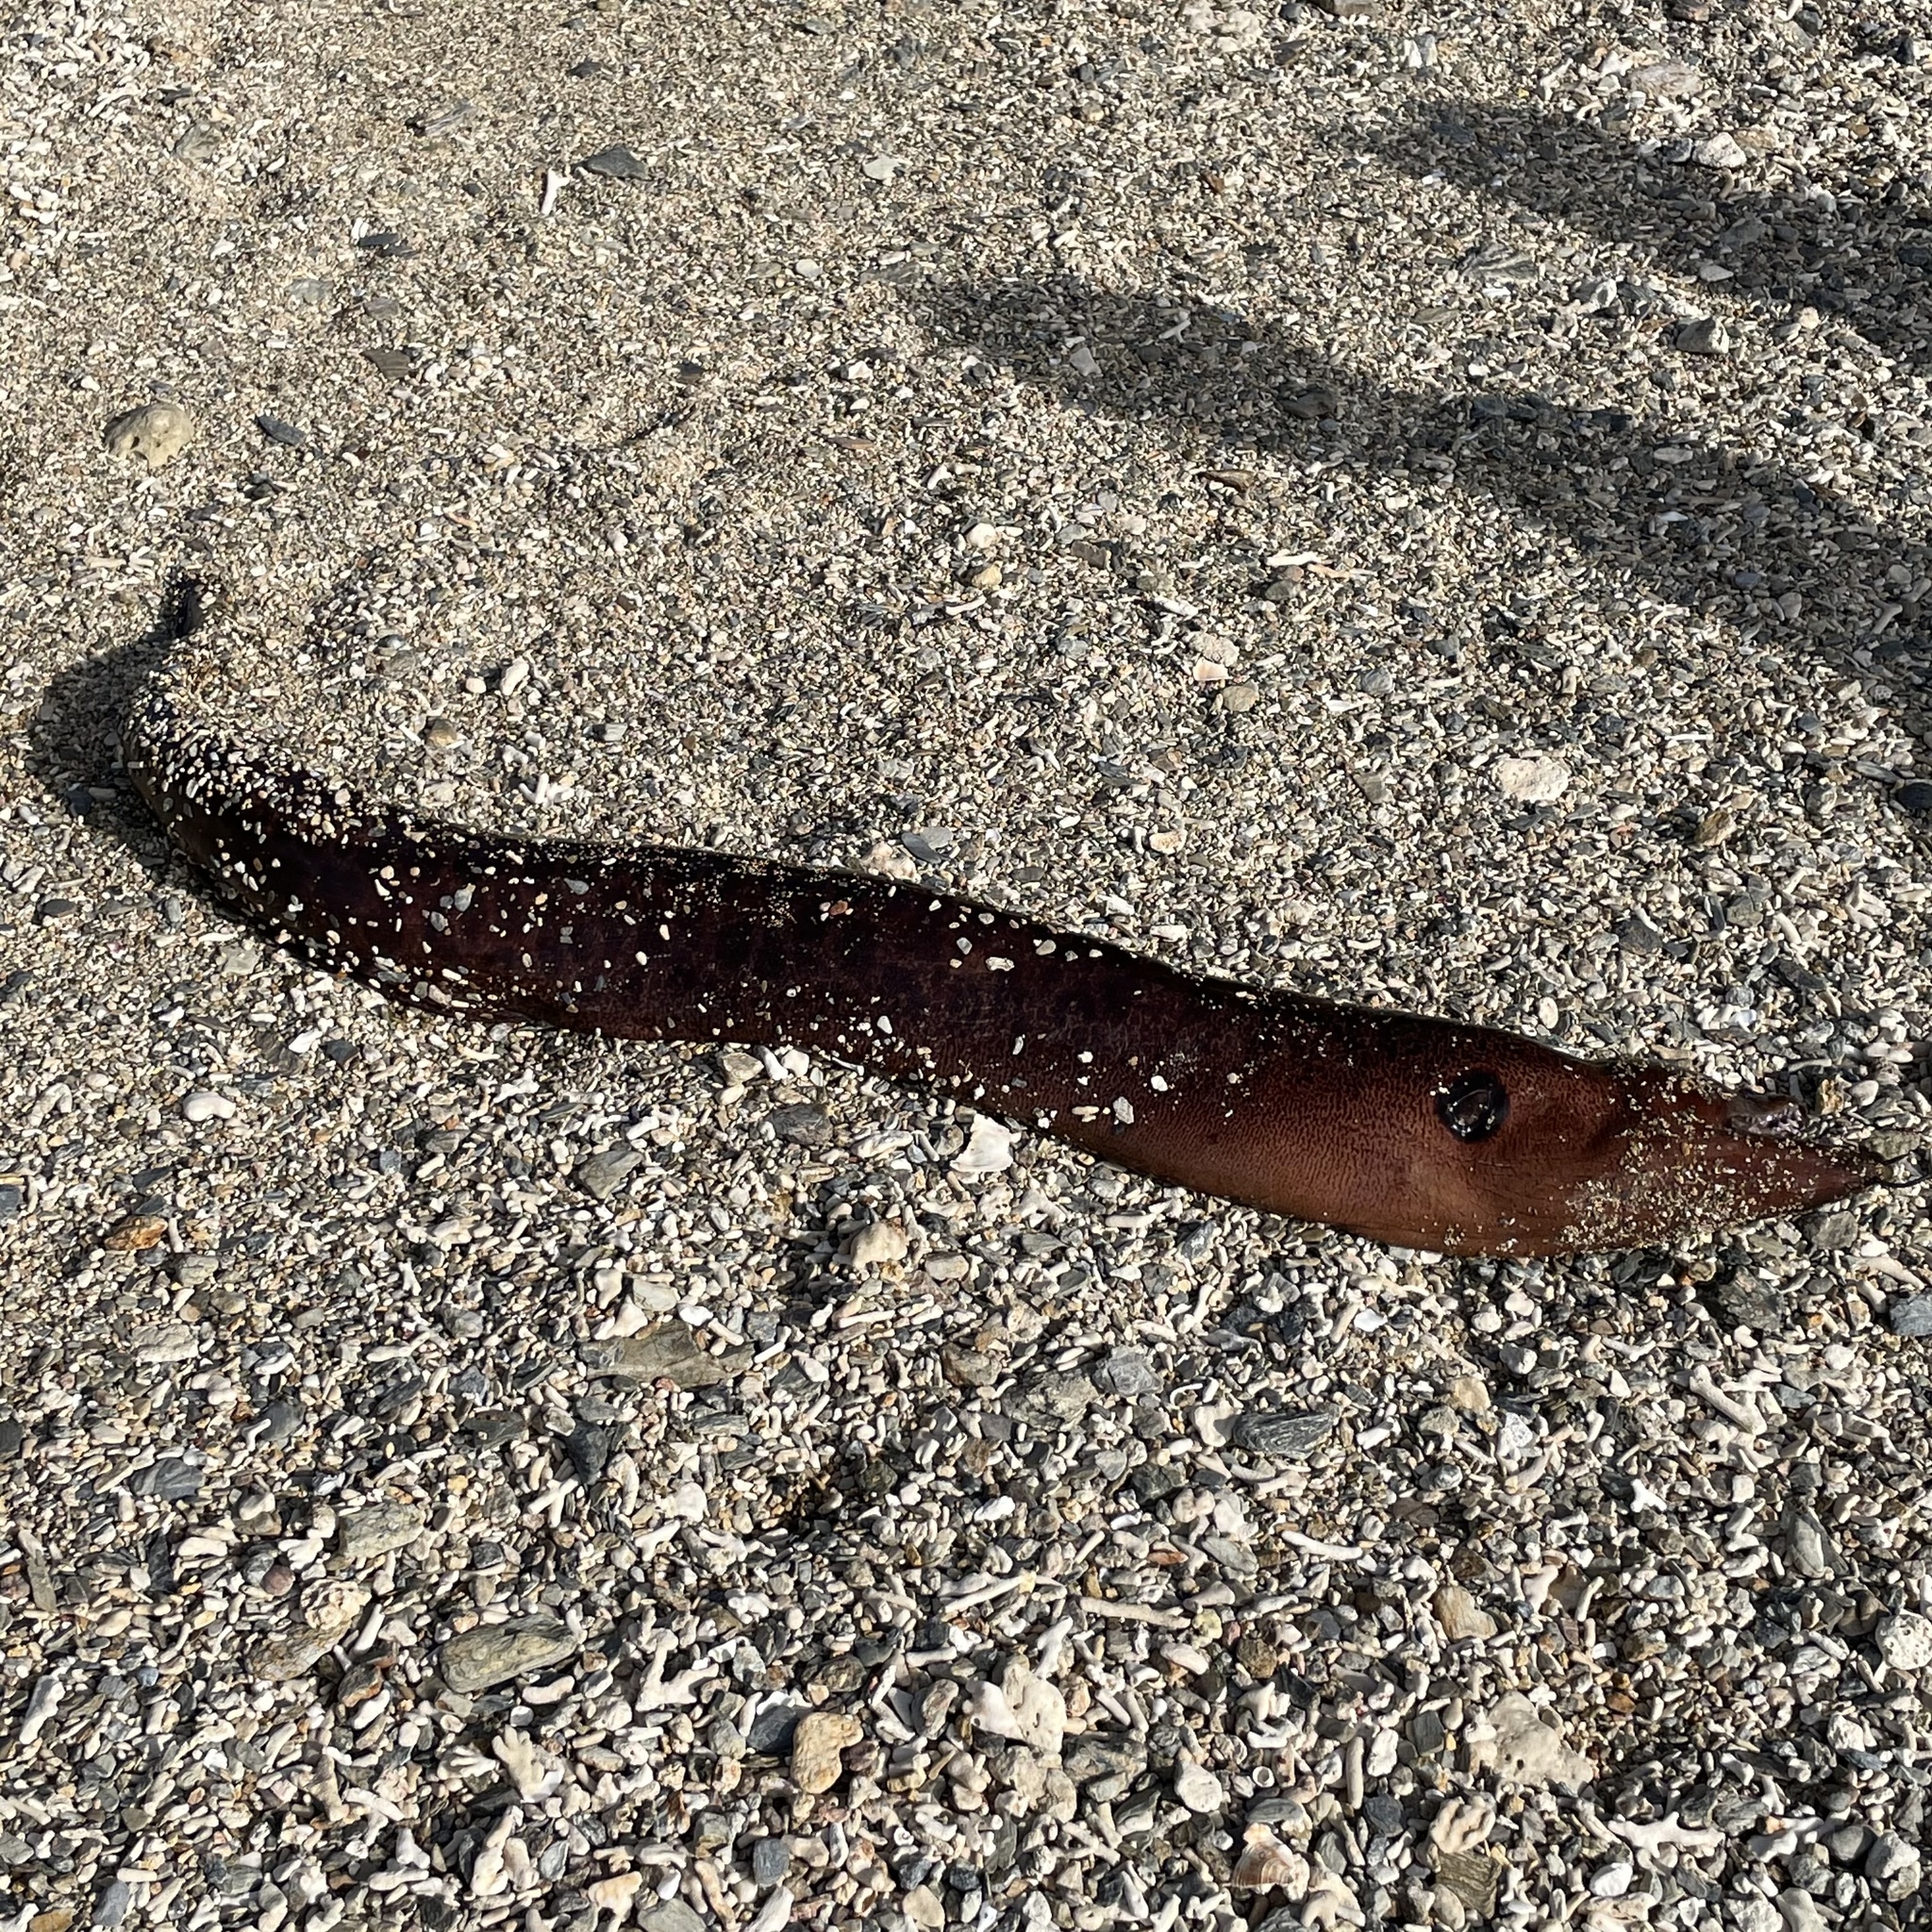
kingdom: Animalia
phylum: Chordata
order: Anguilliformes
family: Muraenidae
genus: Gymnothorax
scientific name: Gymnothorax javanicus
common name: Giant moray
